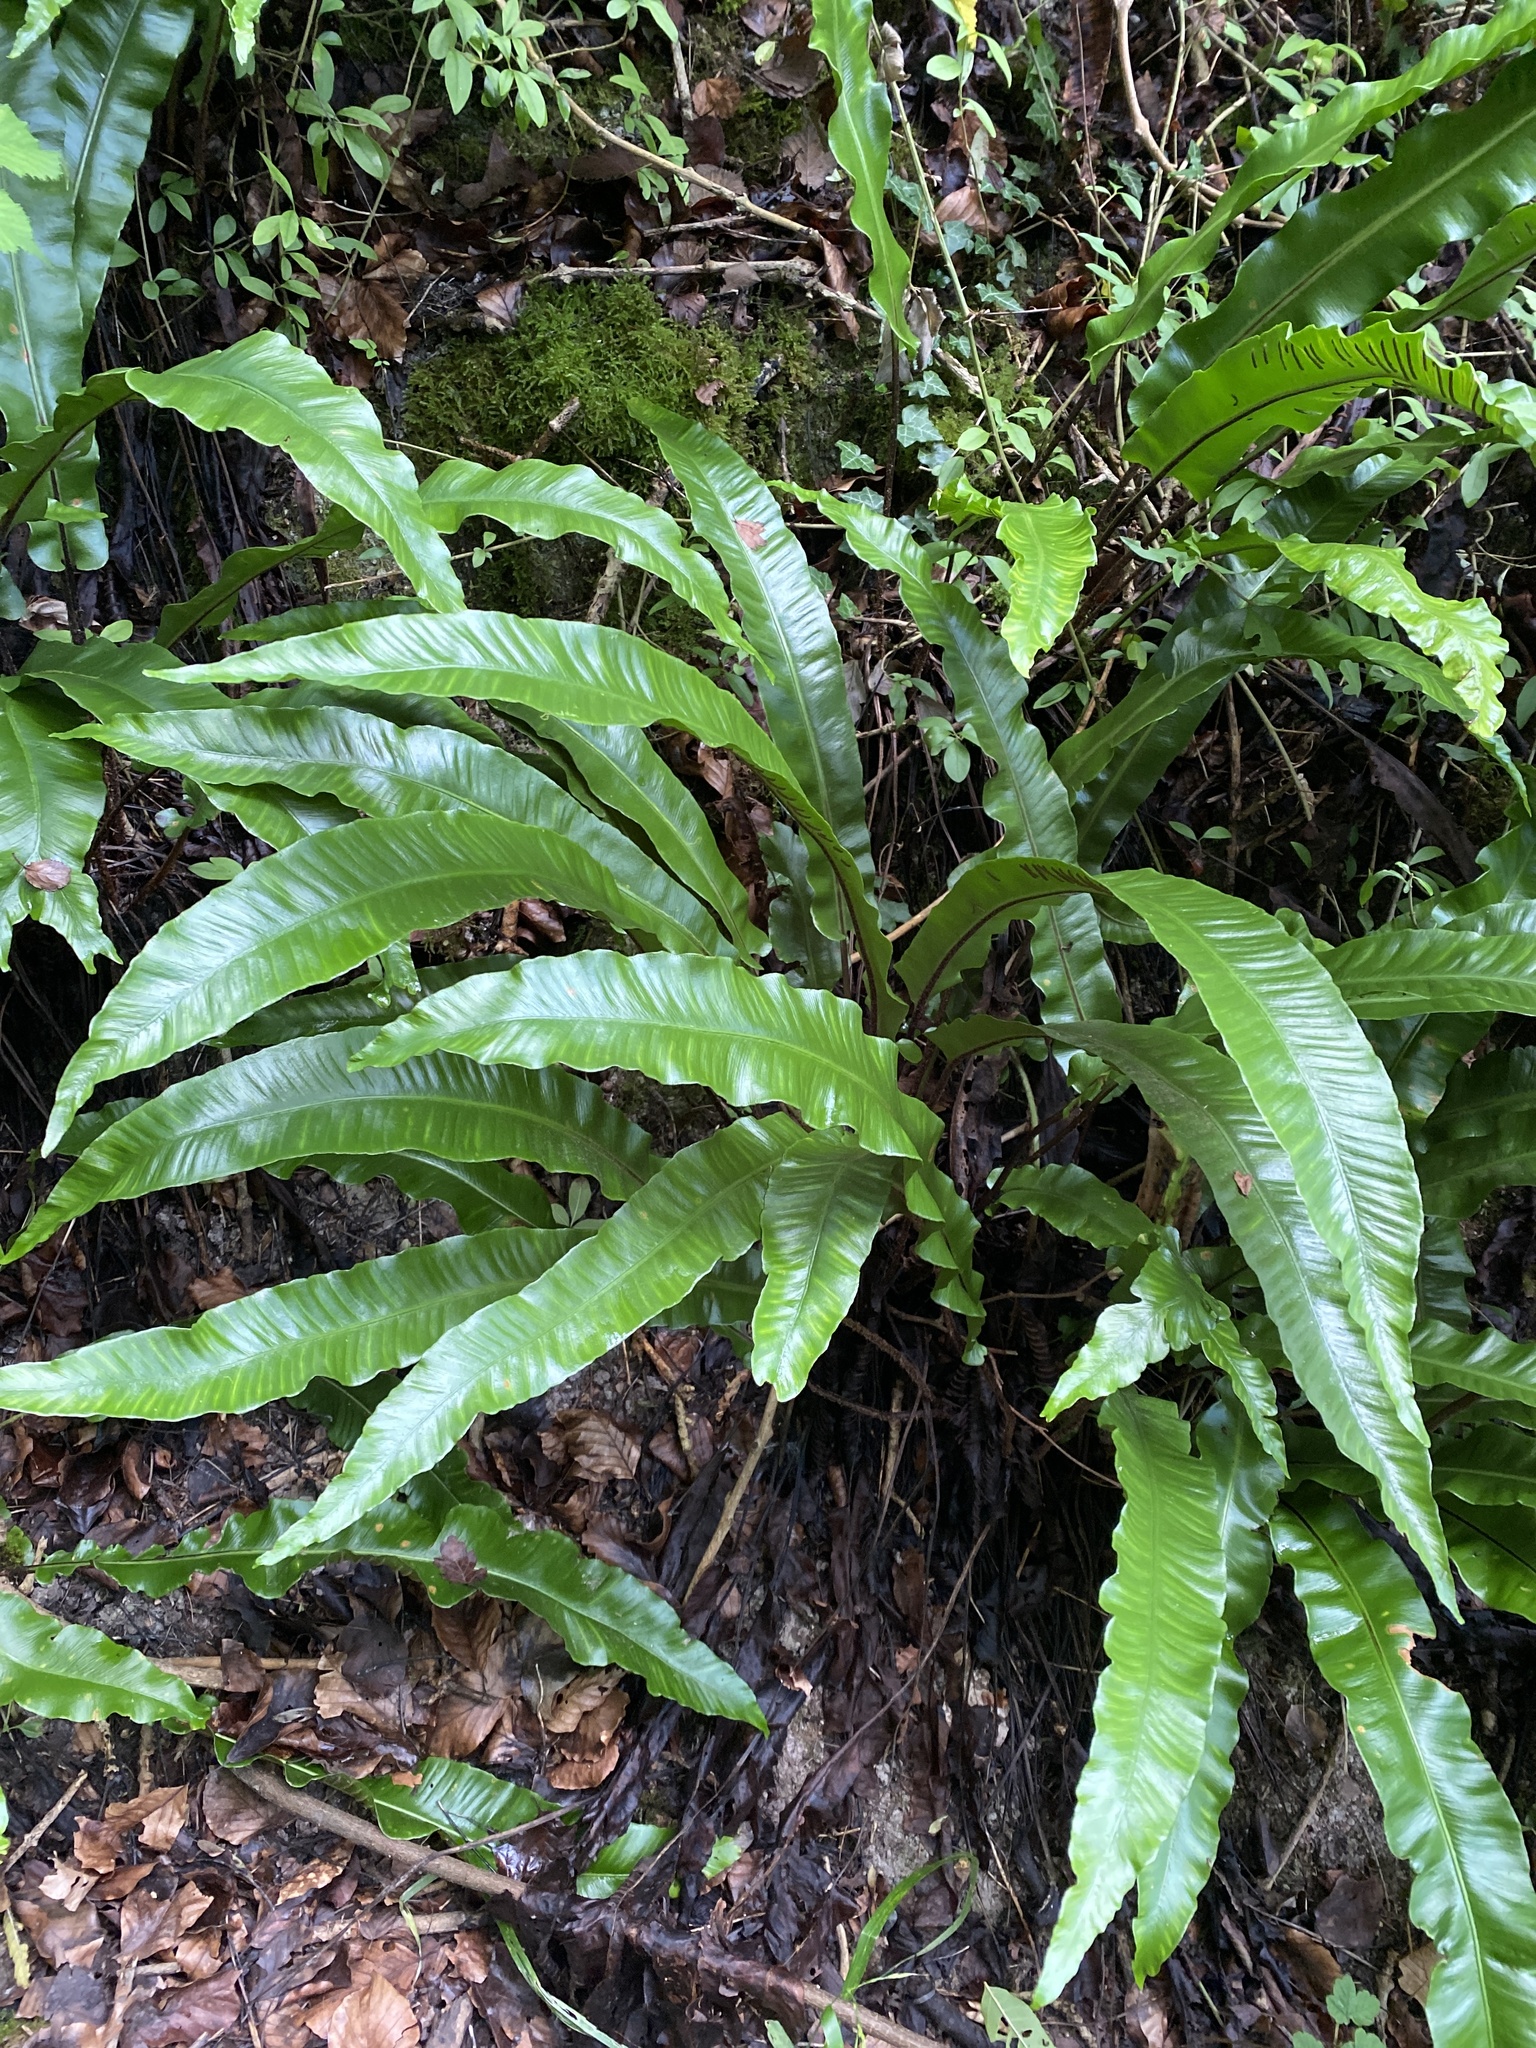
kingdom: Plantae
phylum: Tracheophyta
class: Polypodiopsida
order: Polypodiales
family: Aspleniaceae
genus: Asplenium
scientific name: Asplenium scolopendrium
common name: Hart's-tongue fern
